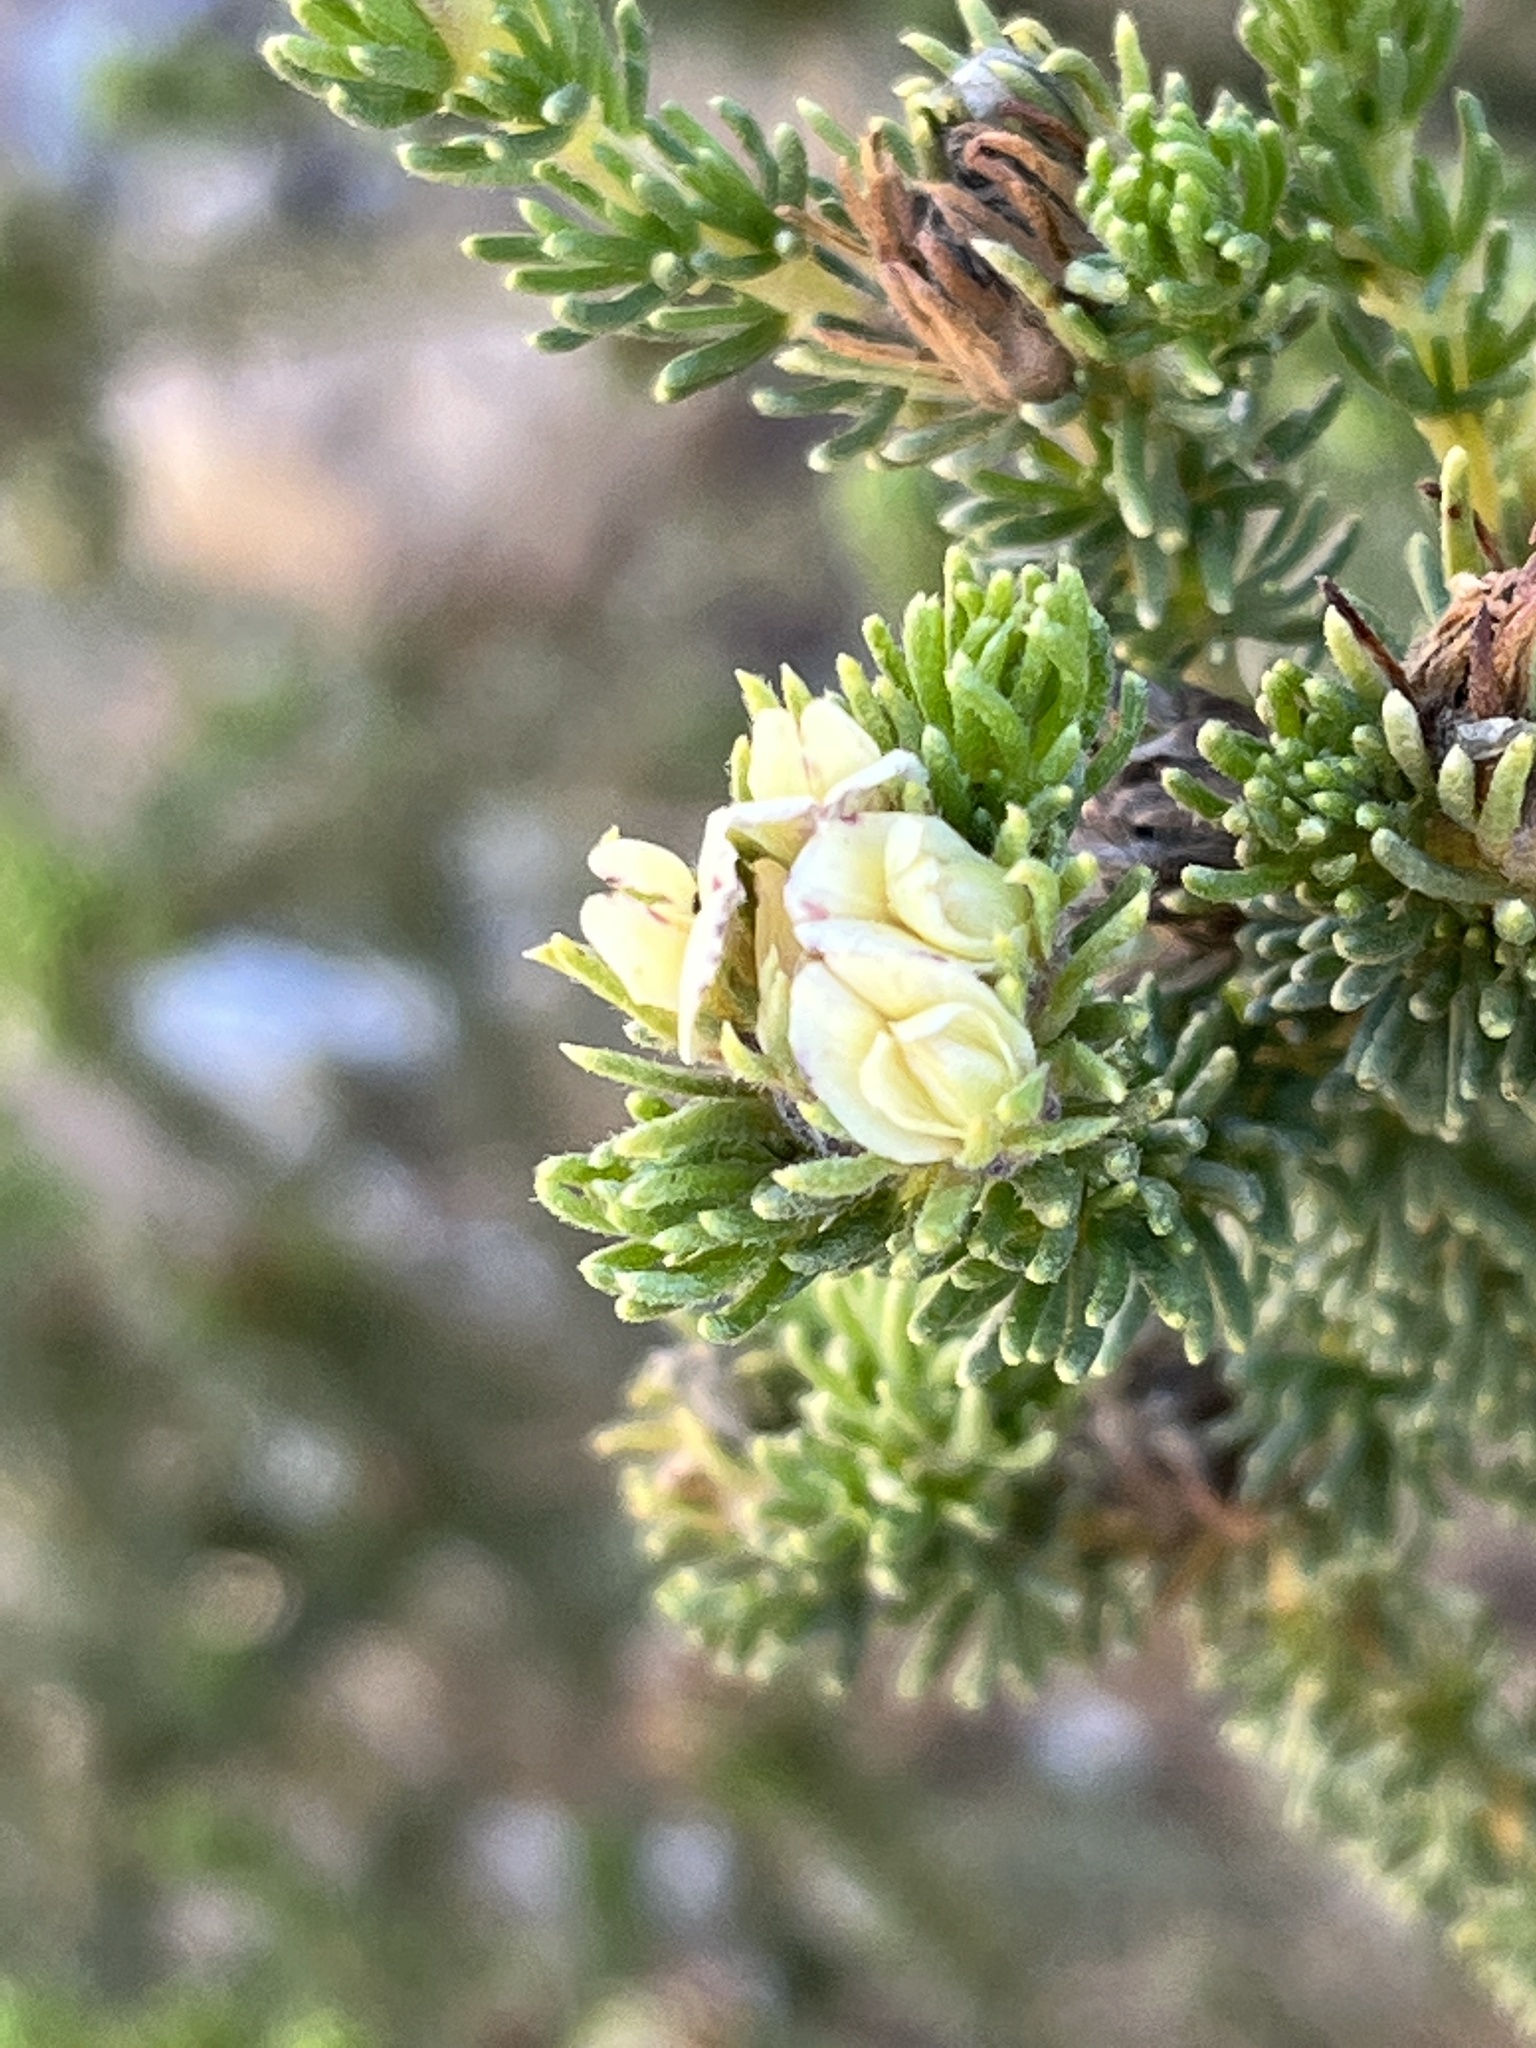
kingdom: Plantae
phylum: Tracheophyta
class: Magnoliopsida
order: Fabales
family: Fabaceae
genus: Aspalathus
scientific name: Aspalathus forbesii
